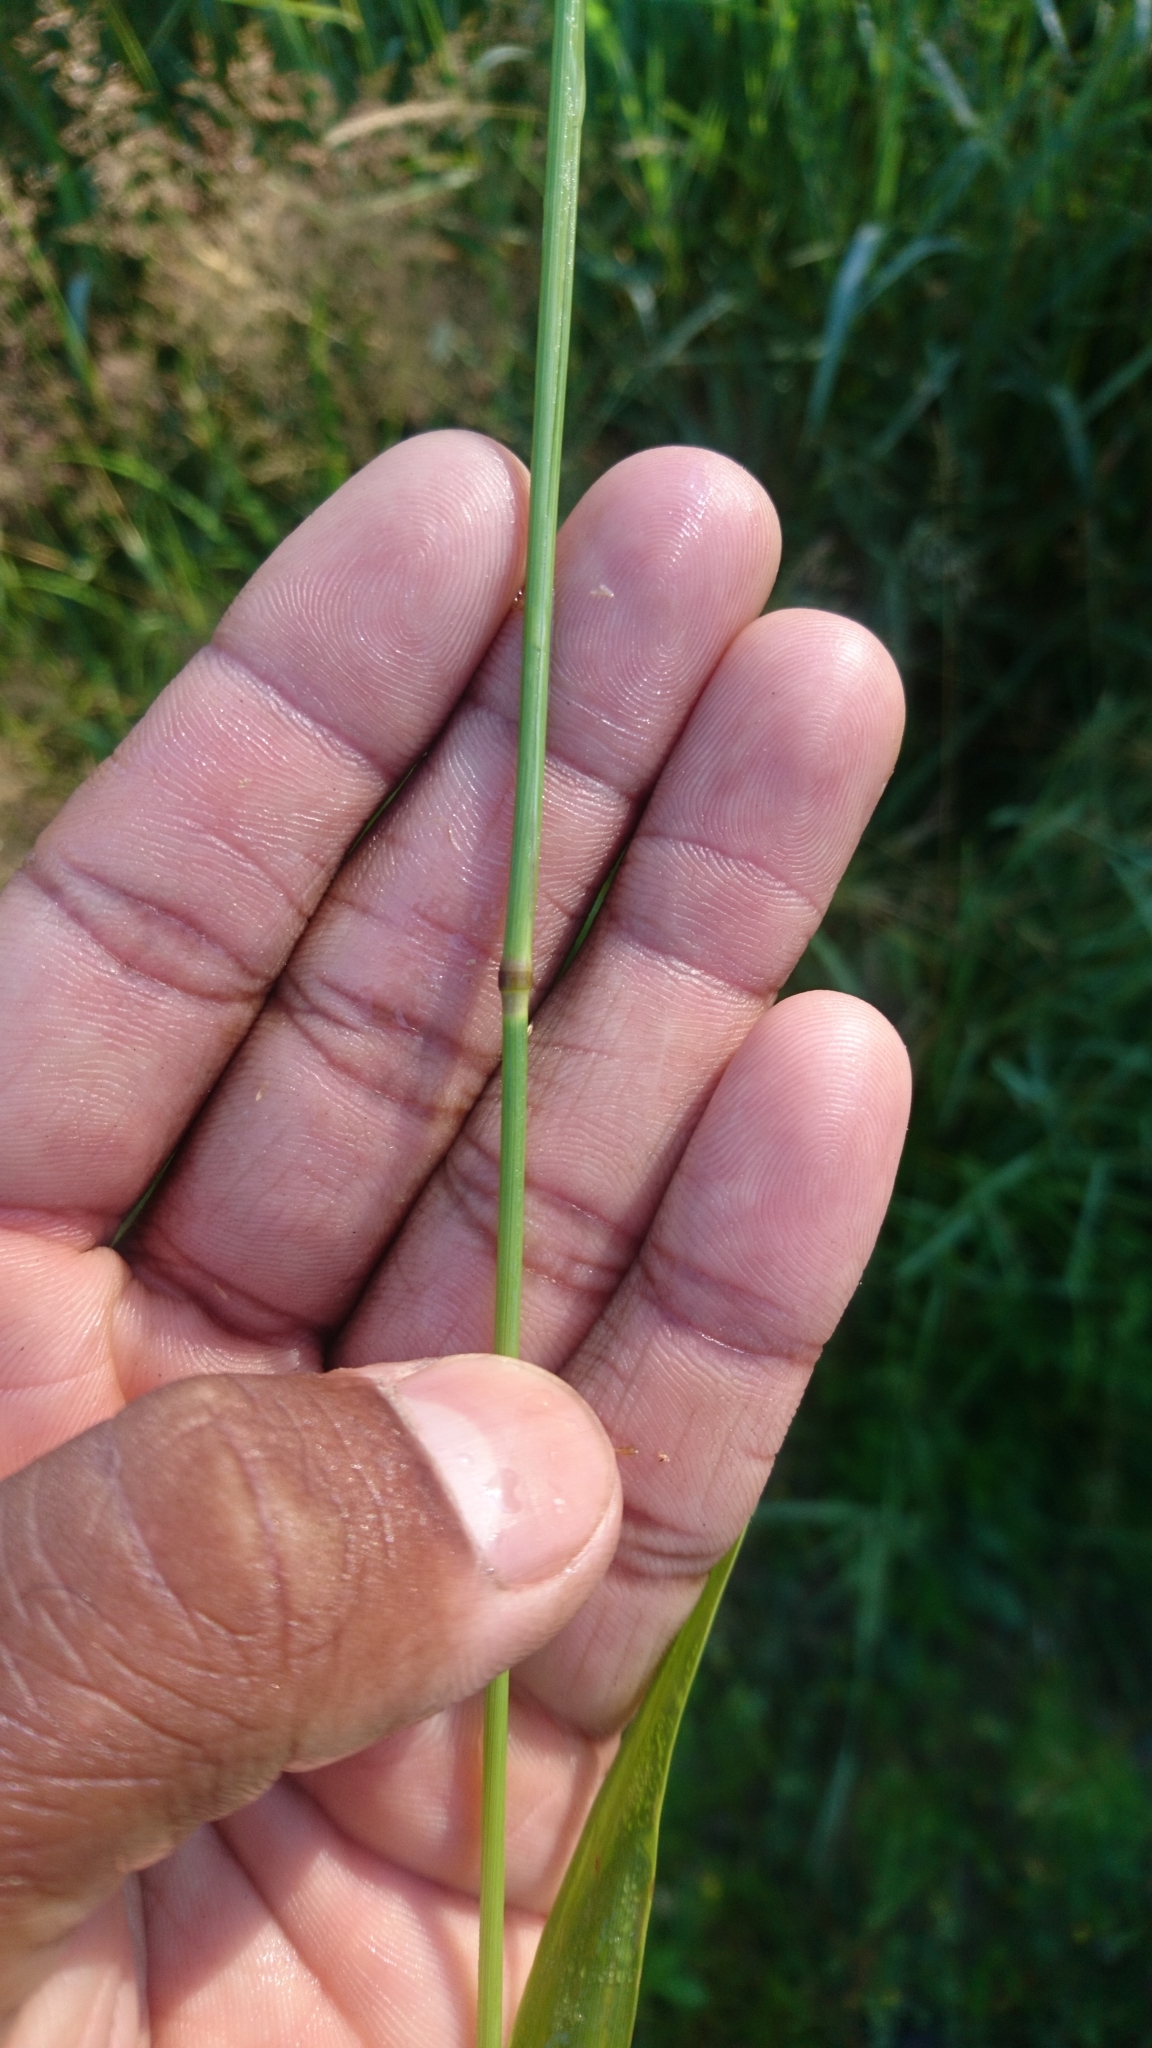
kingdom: Plantae
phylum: Tracheophyta
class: Liliopsida
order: Poales
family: Poaceae
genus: Phleum
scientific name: Phleum pratense
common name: Timothy grass
